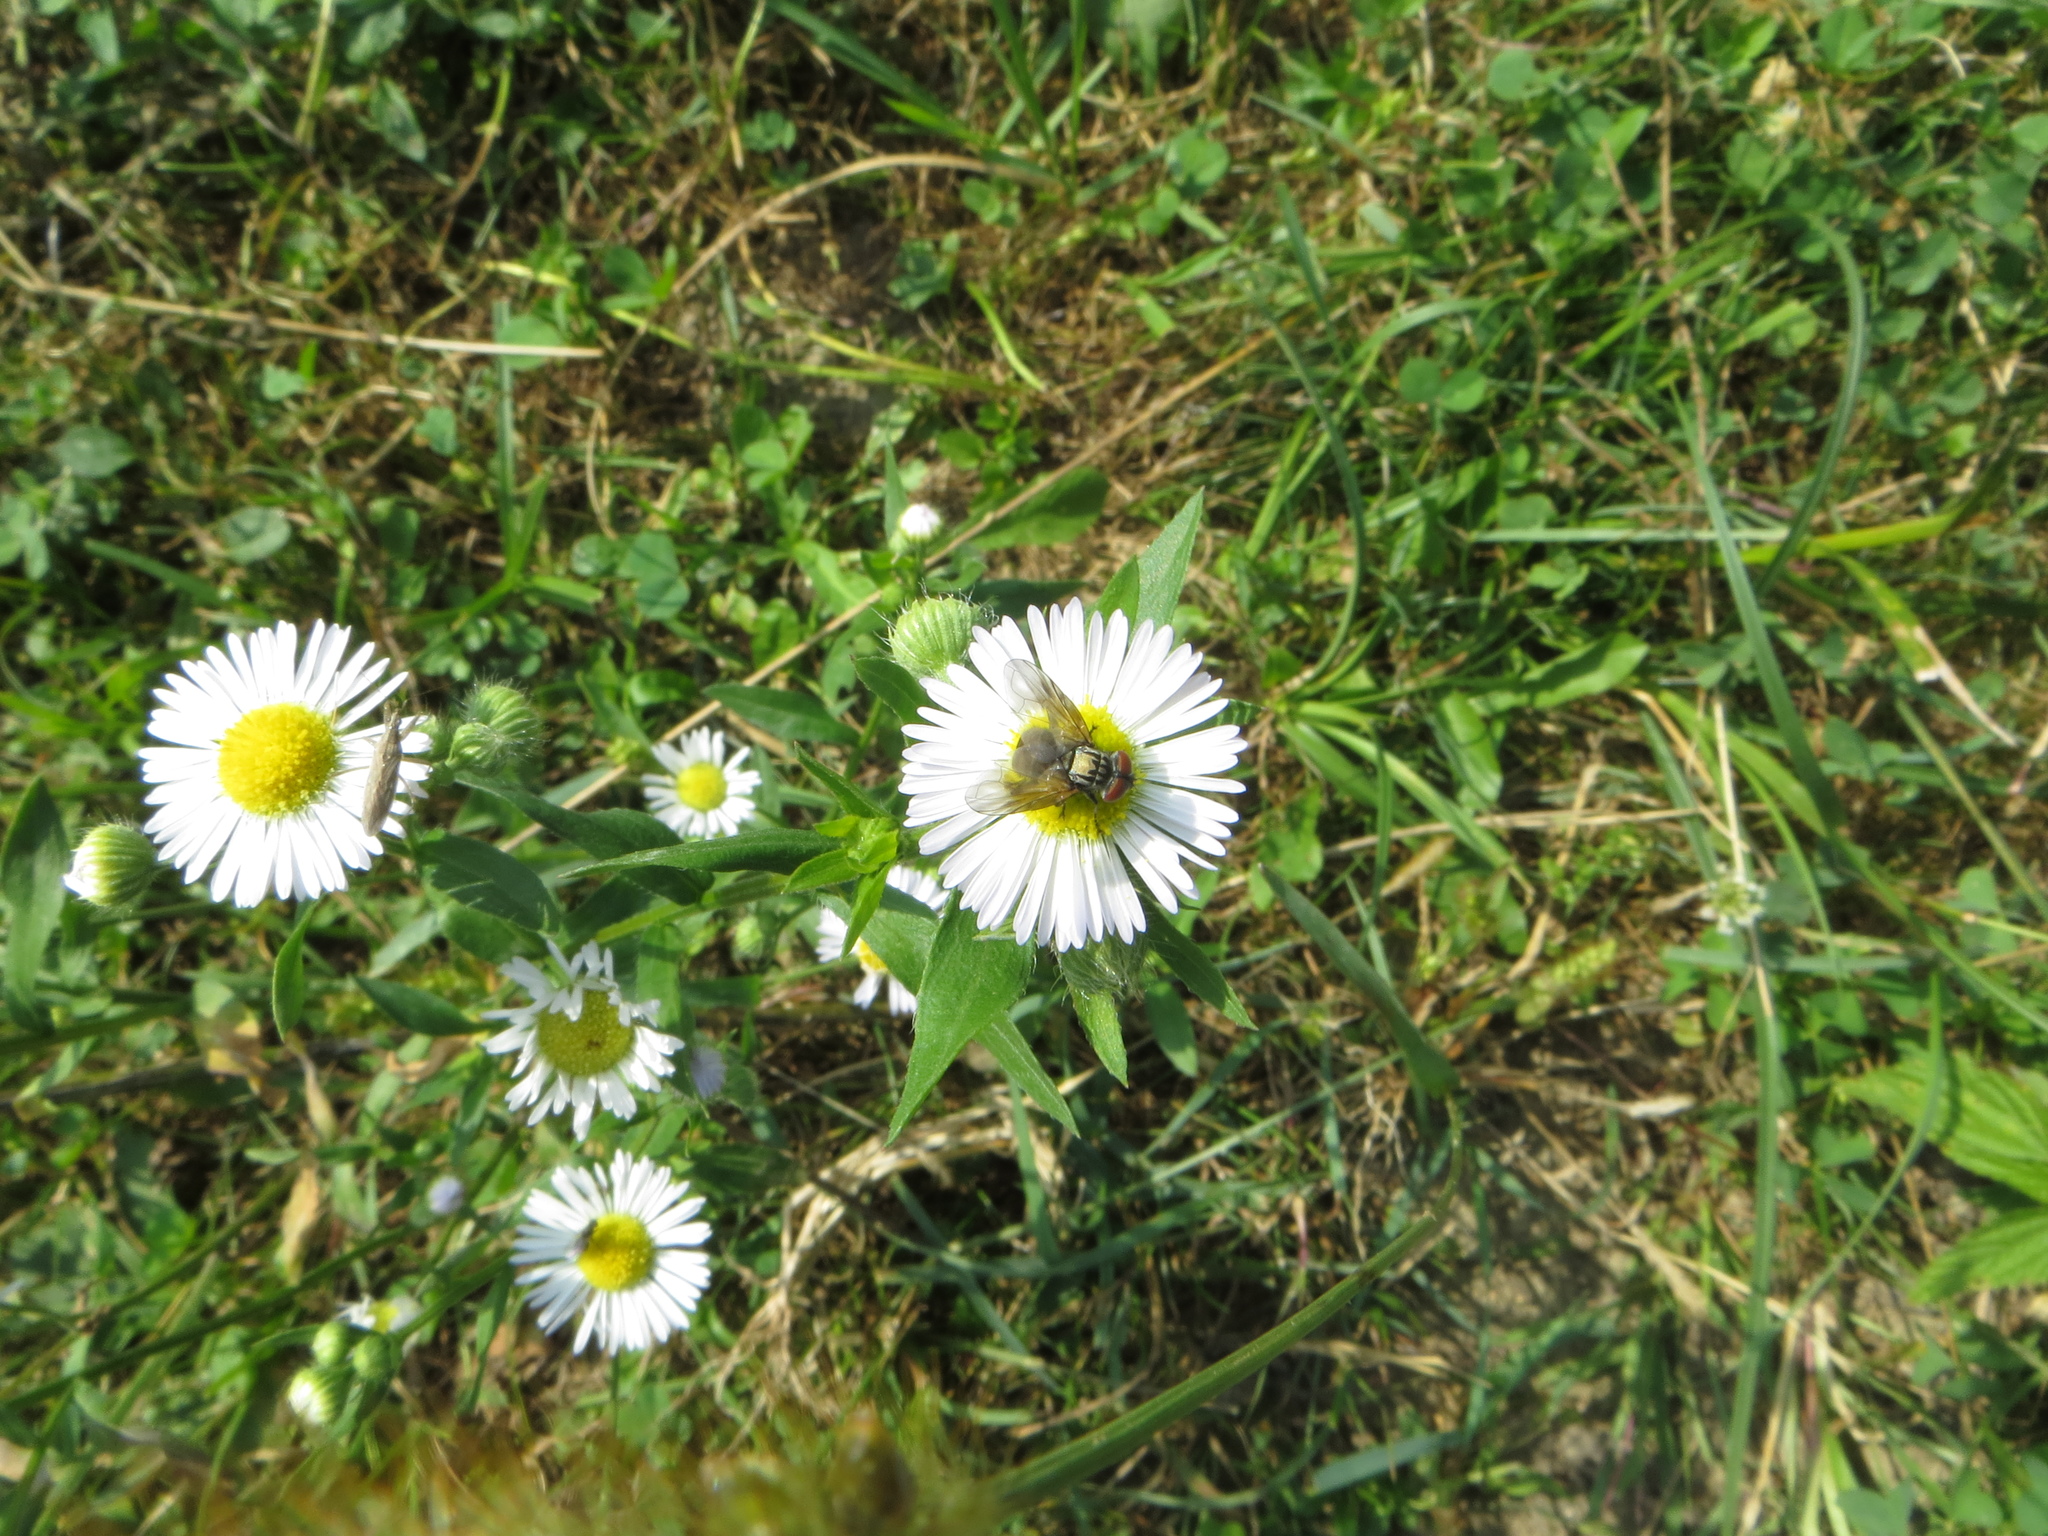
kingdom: Animalia
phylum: Arthropoda
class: Insecta
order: Diptera
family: Tachinidae
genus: Phasia
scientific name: Phasia obesa
